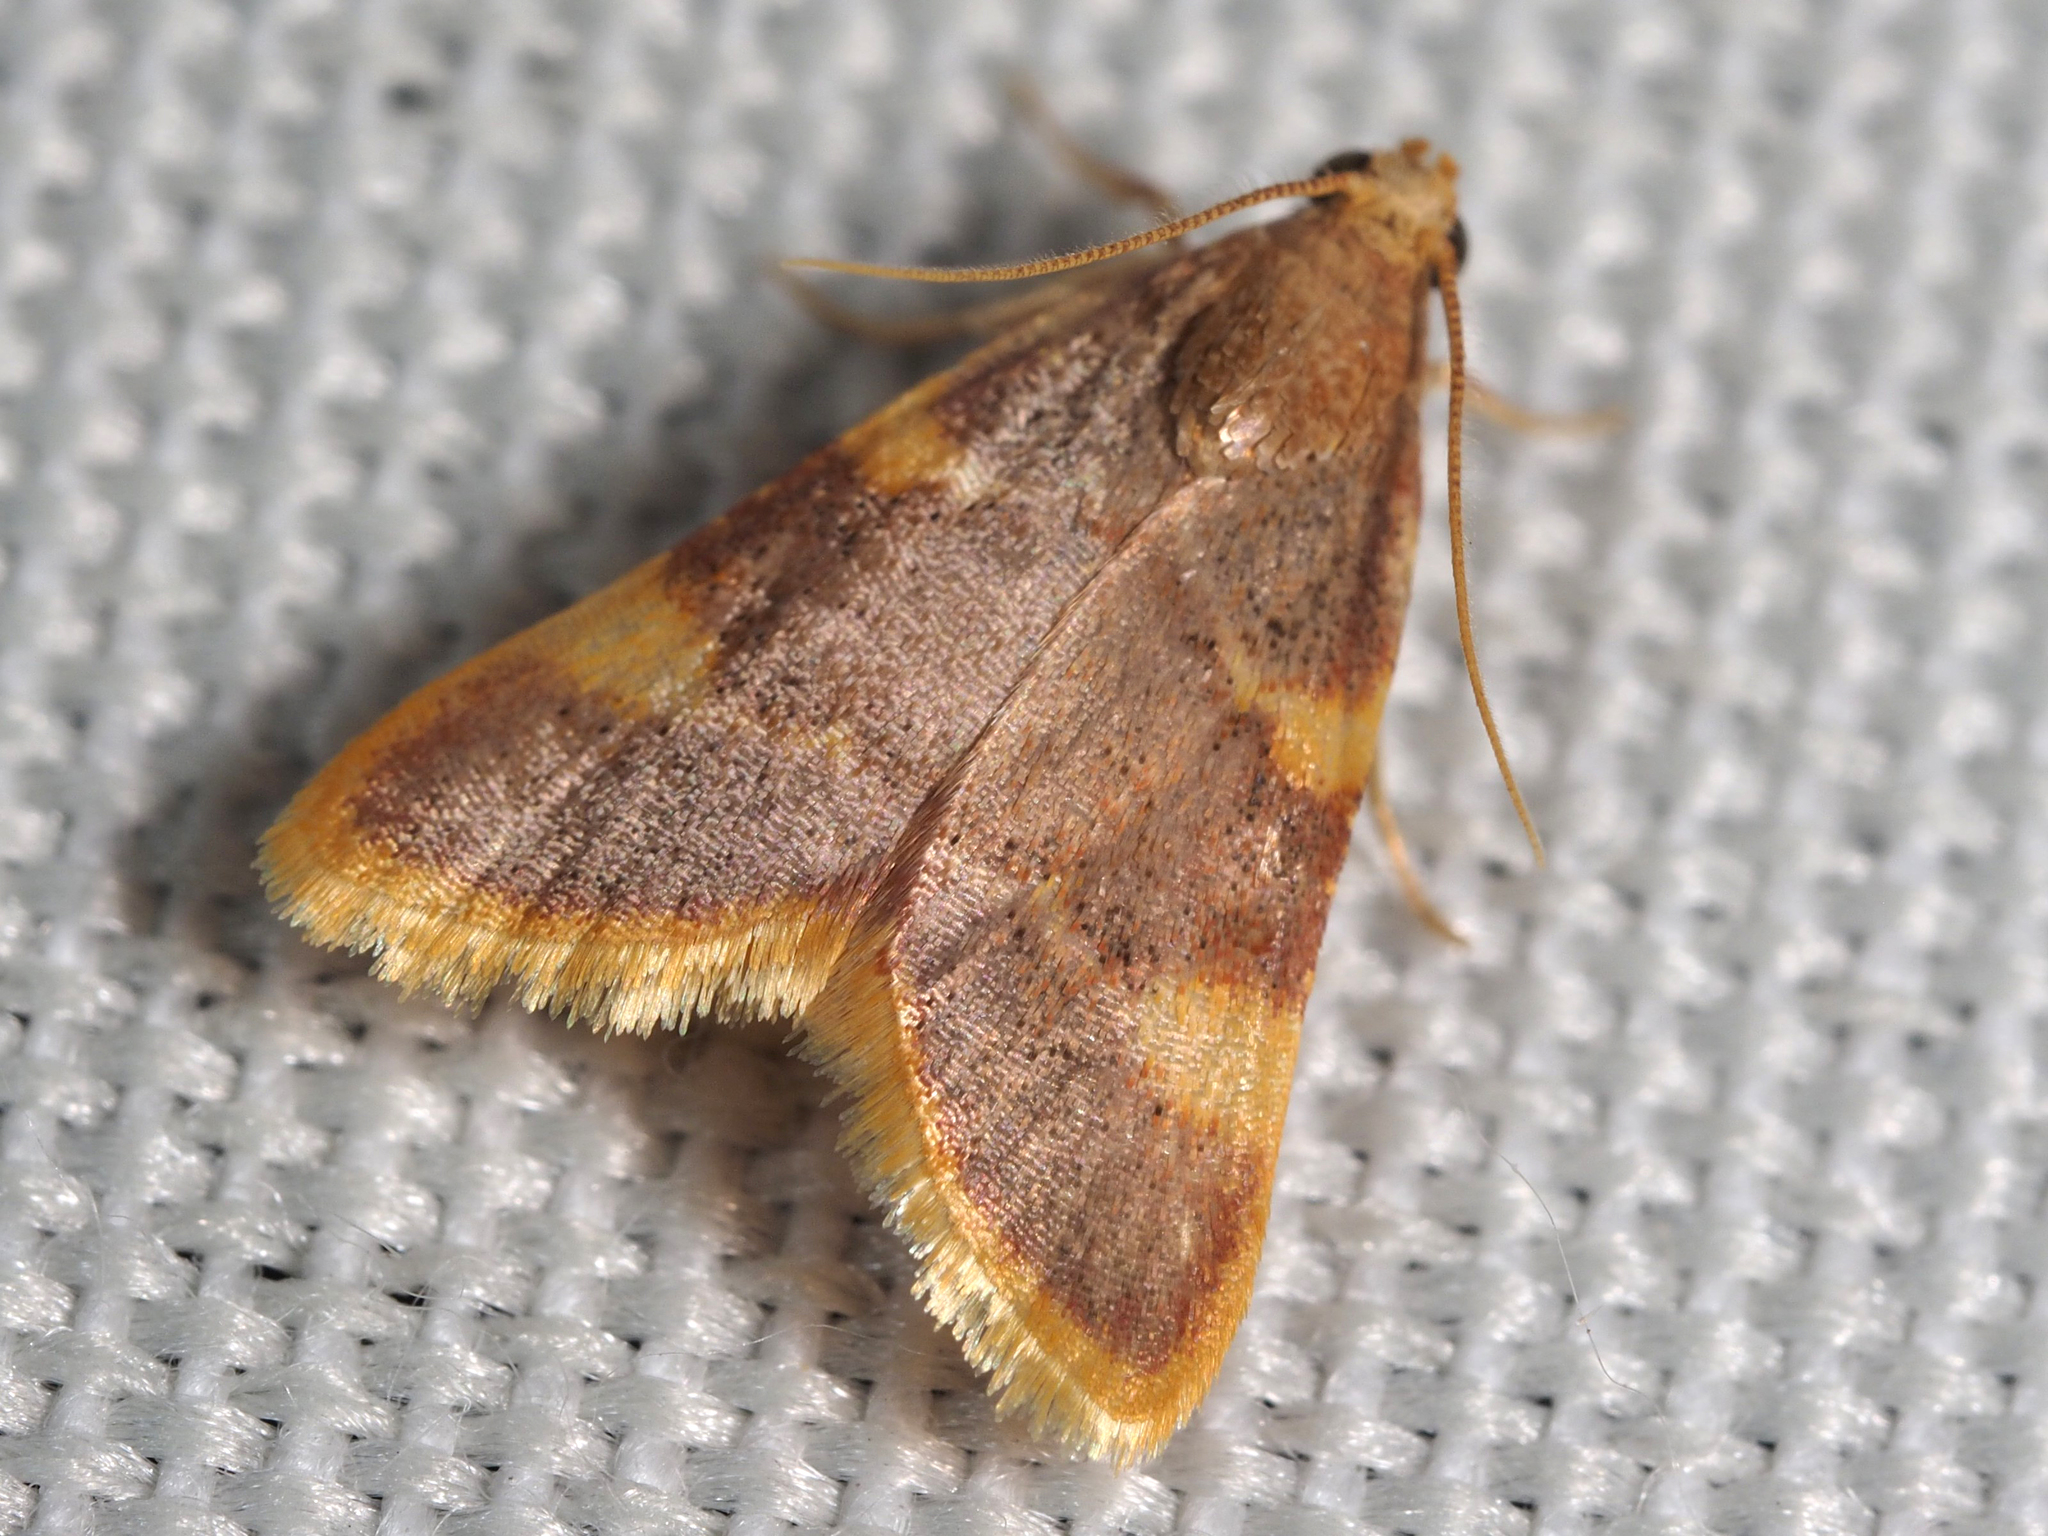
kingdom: Animalia
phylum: Arthropoda
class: Insecta
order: Lepidoptera
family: Pyralidae
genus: Hypsopygia
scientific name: Hypsopygia costalis
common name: Gold triangle
